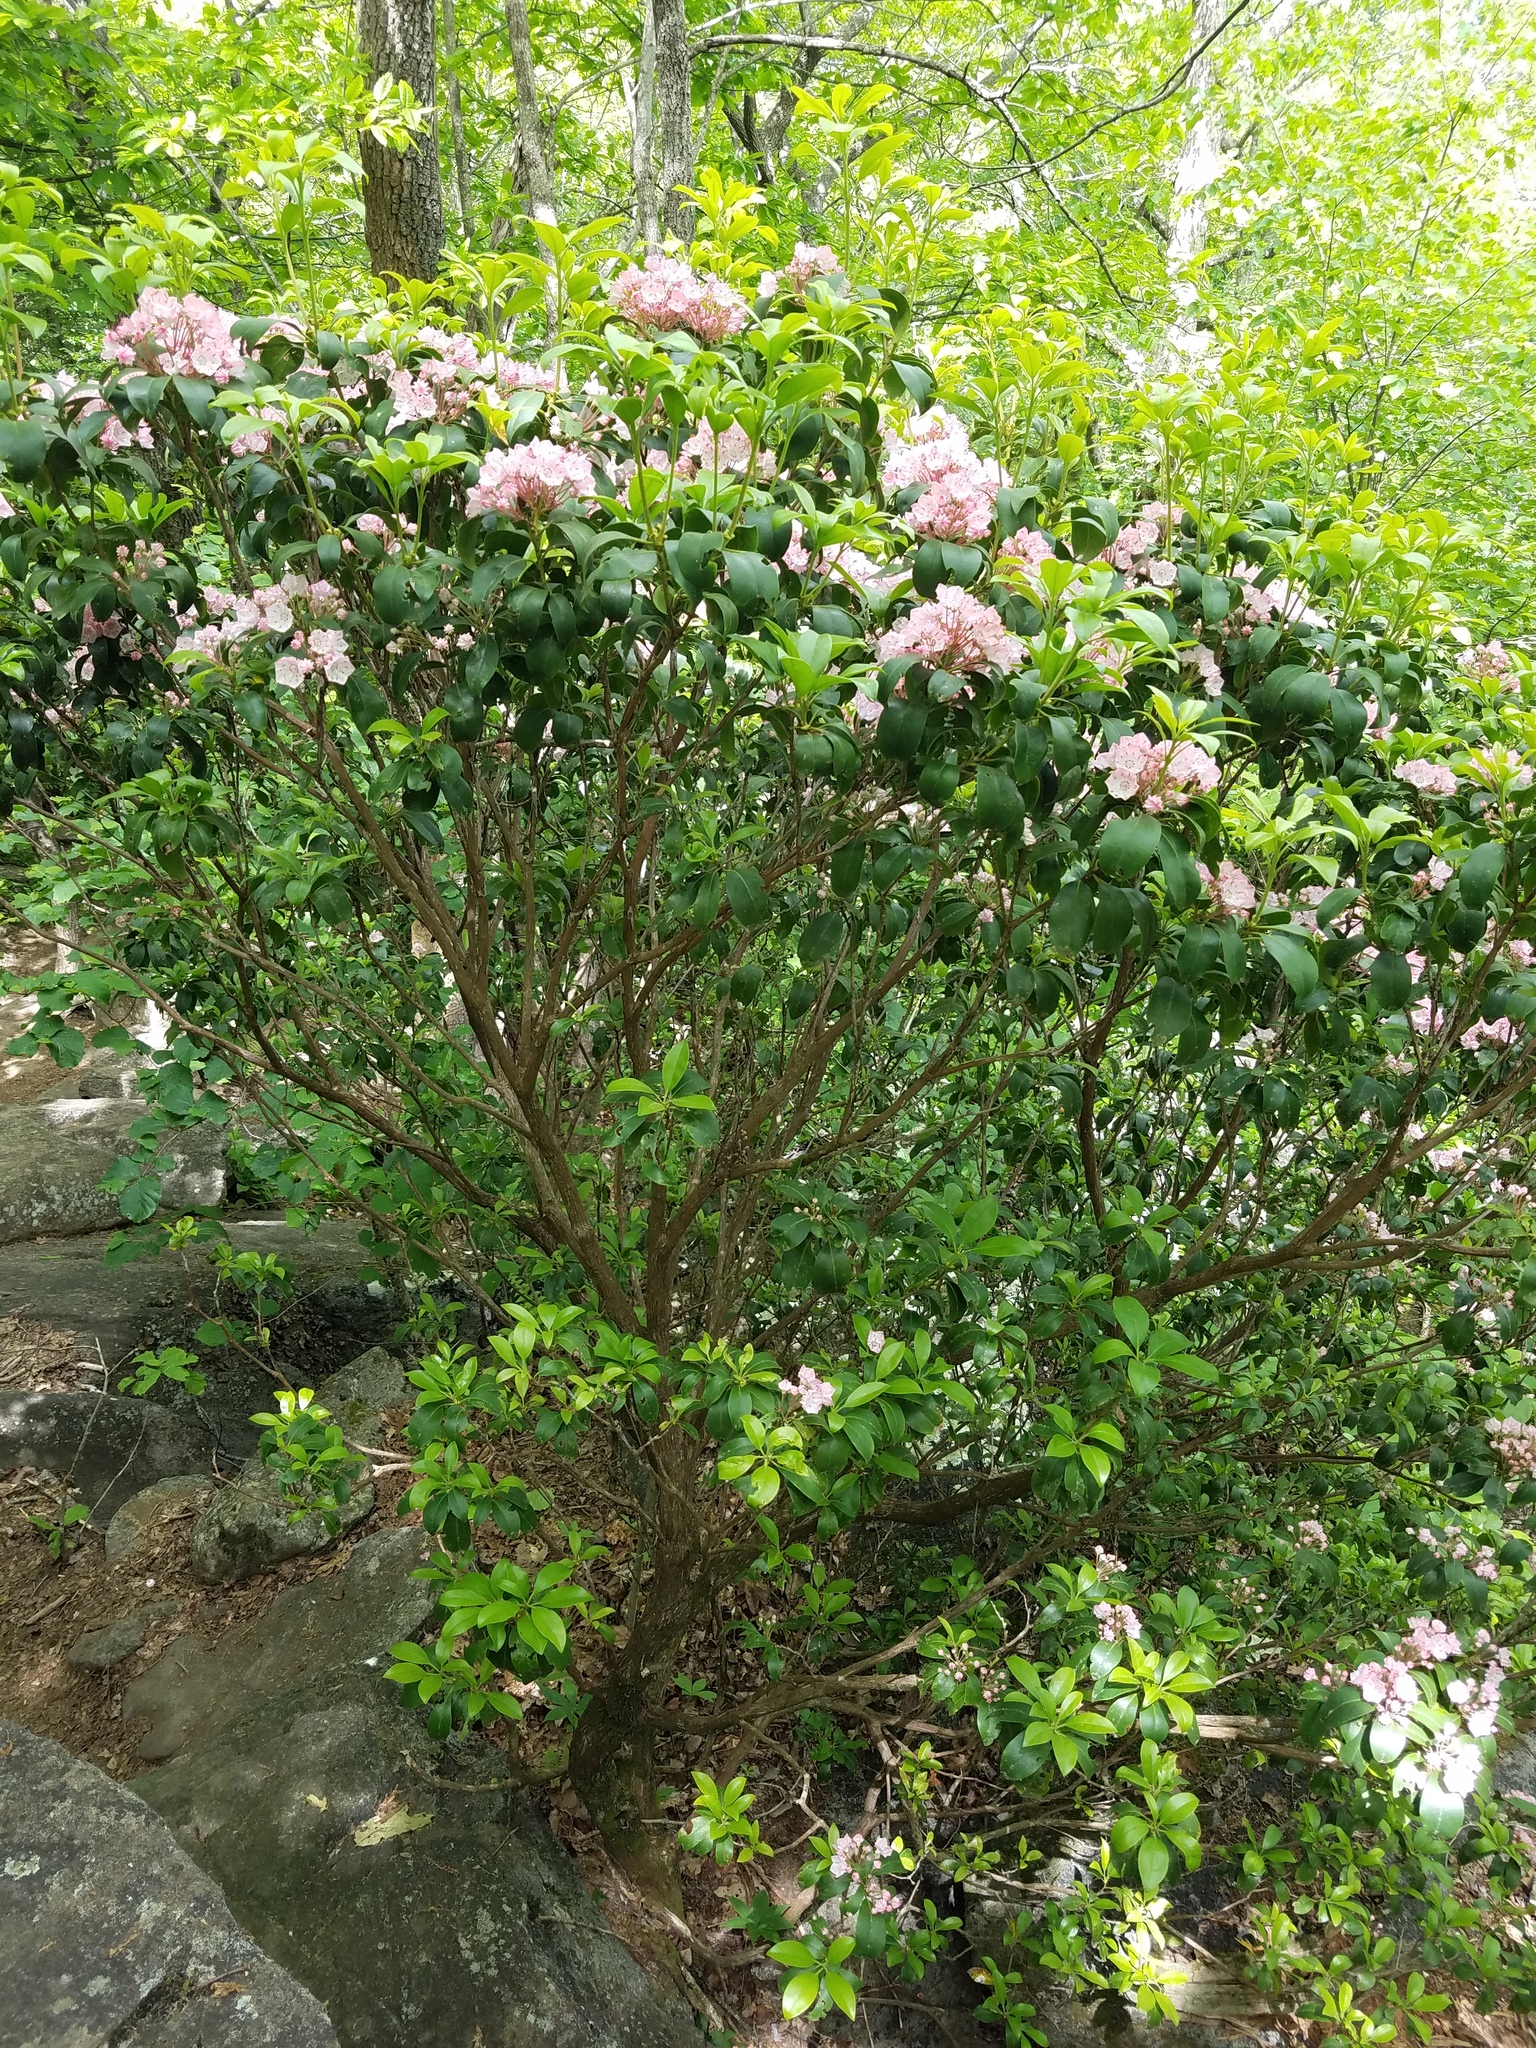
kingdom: Plantae
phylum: Tracheophyta
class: Magnoliopsida
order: Ericales
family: Ericaceae
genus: Kalmia
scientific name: Kalmia latifolia
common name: Mountain-laurel
